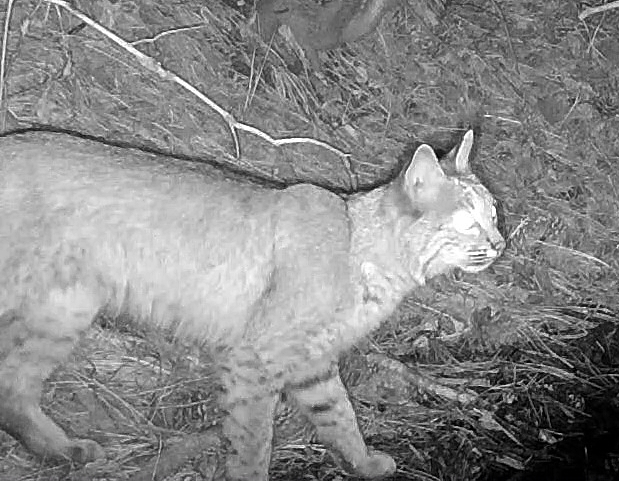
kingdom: Animalia
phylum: Chordata
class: Mammalia
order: Carnivora
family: Felidae
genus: Lynx
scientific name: Lynx rufus
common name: Bobcat
